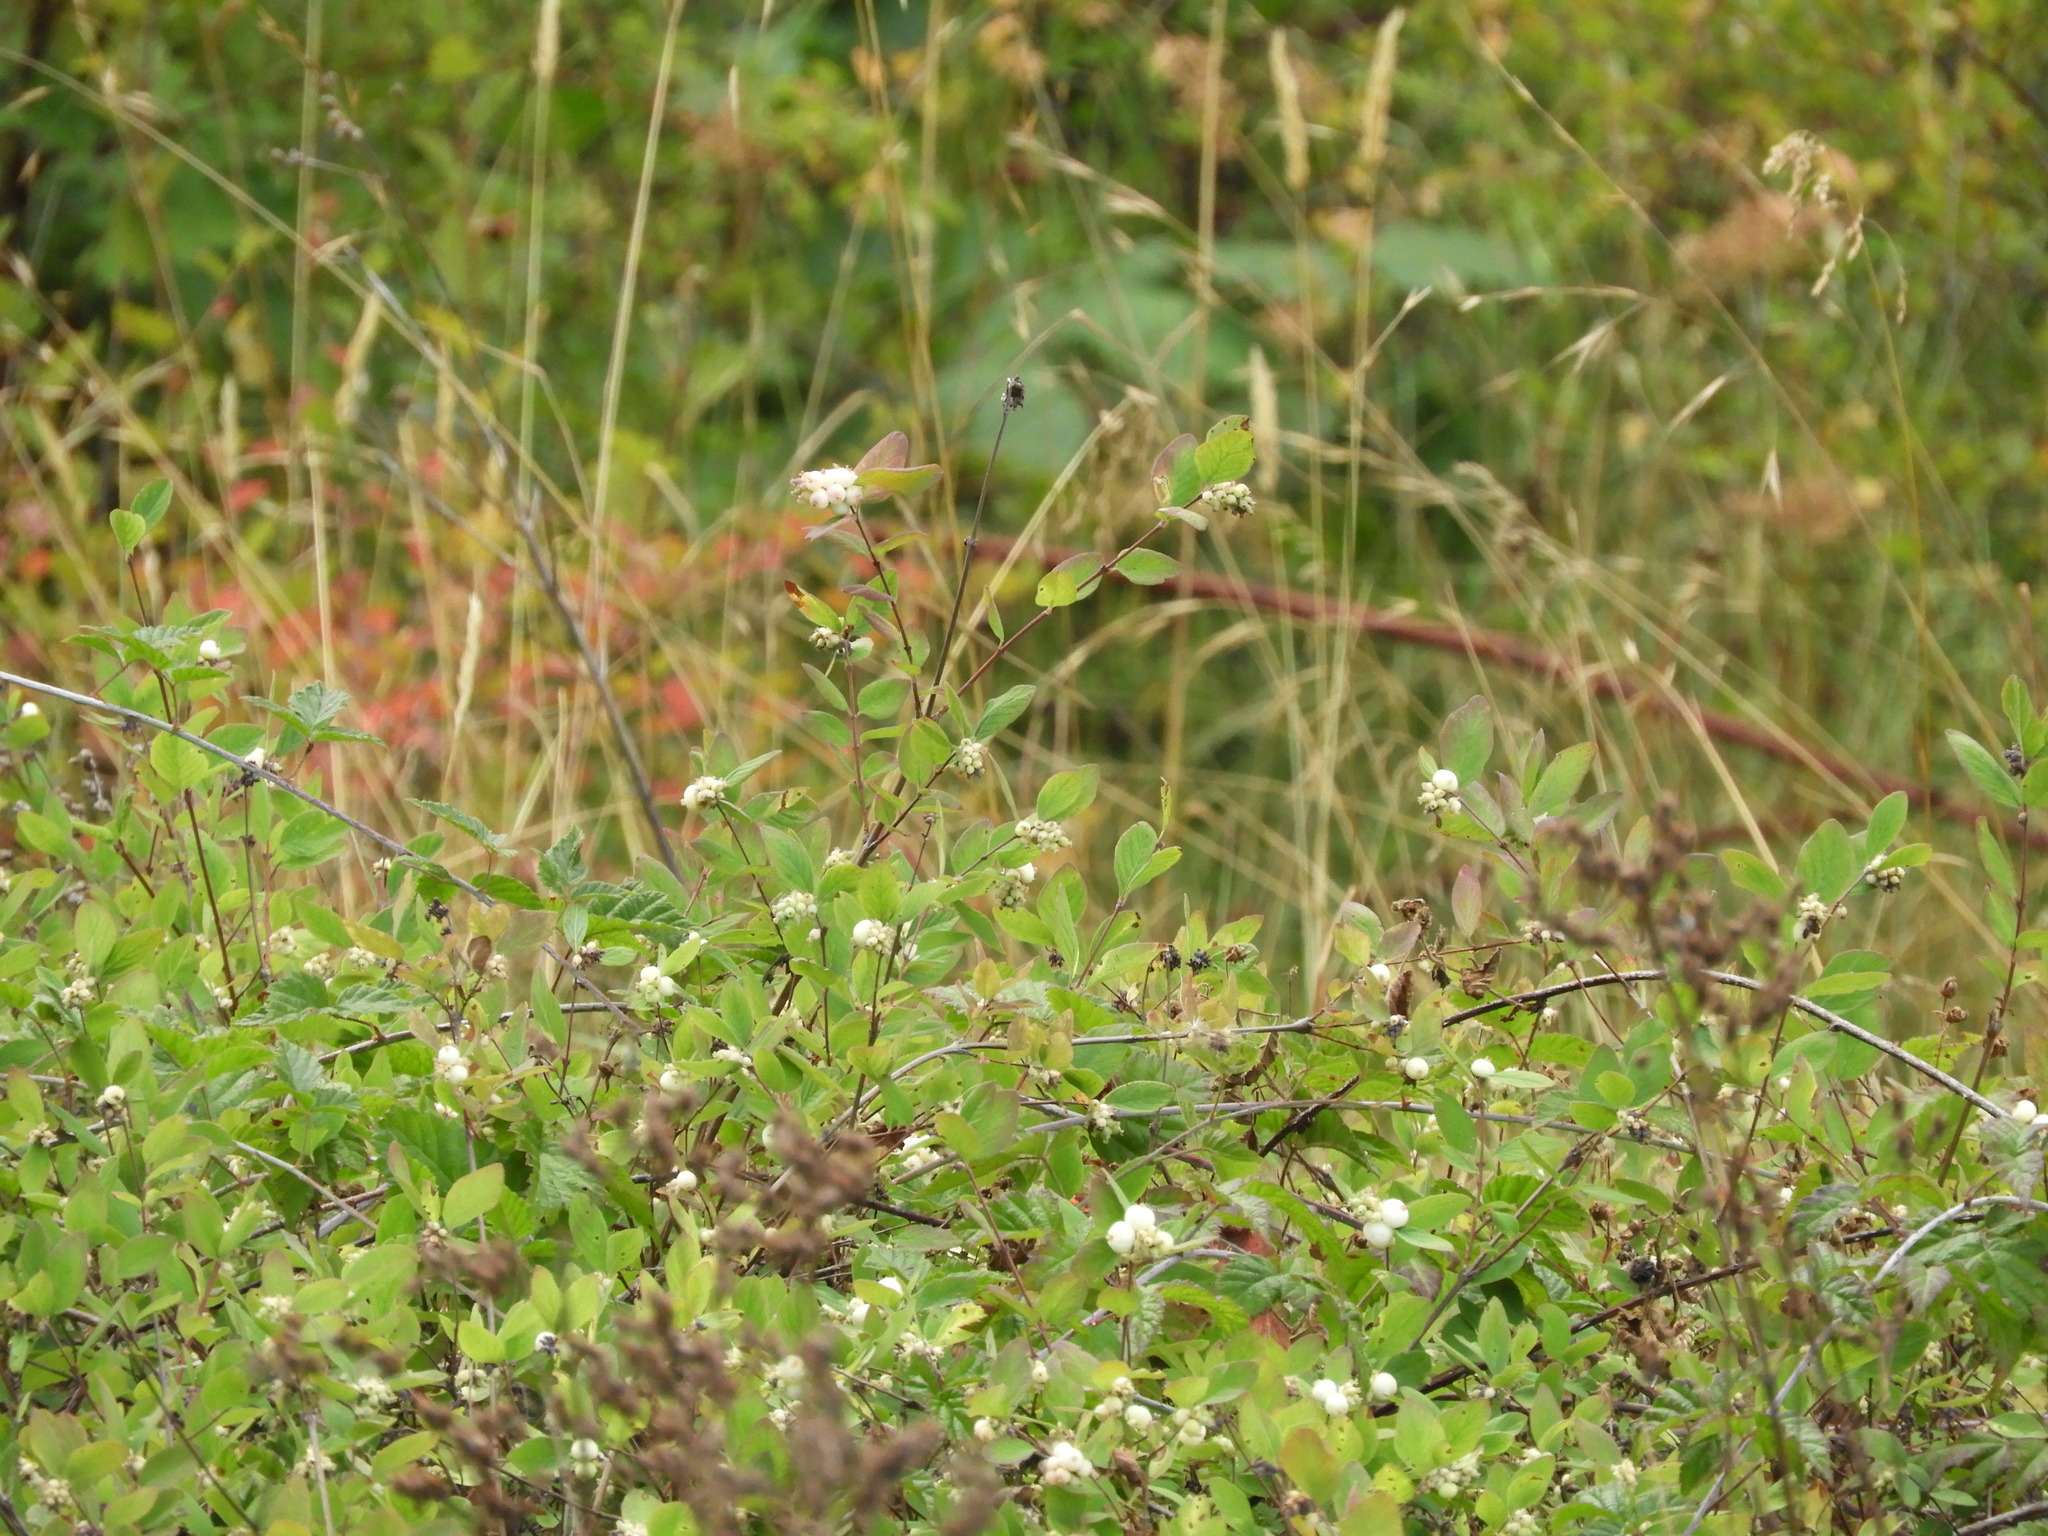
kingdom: Plantae
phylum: Tracheophyta
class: Magnoliopsida
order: Dipsacales
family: Caprifoliaceae
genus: Symphoricarpos
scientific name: Symphoricarpos albus
